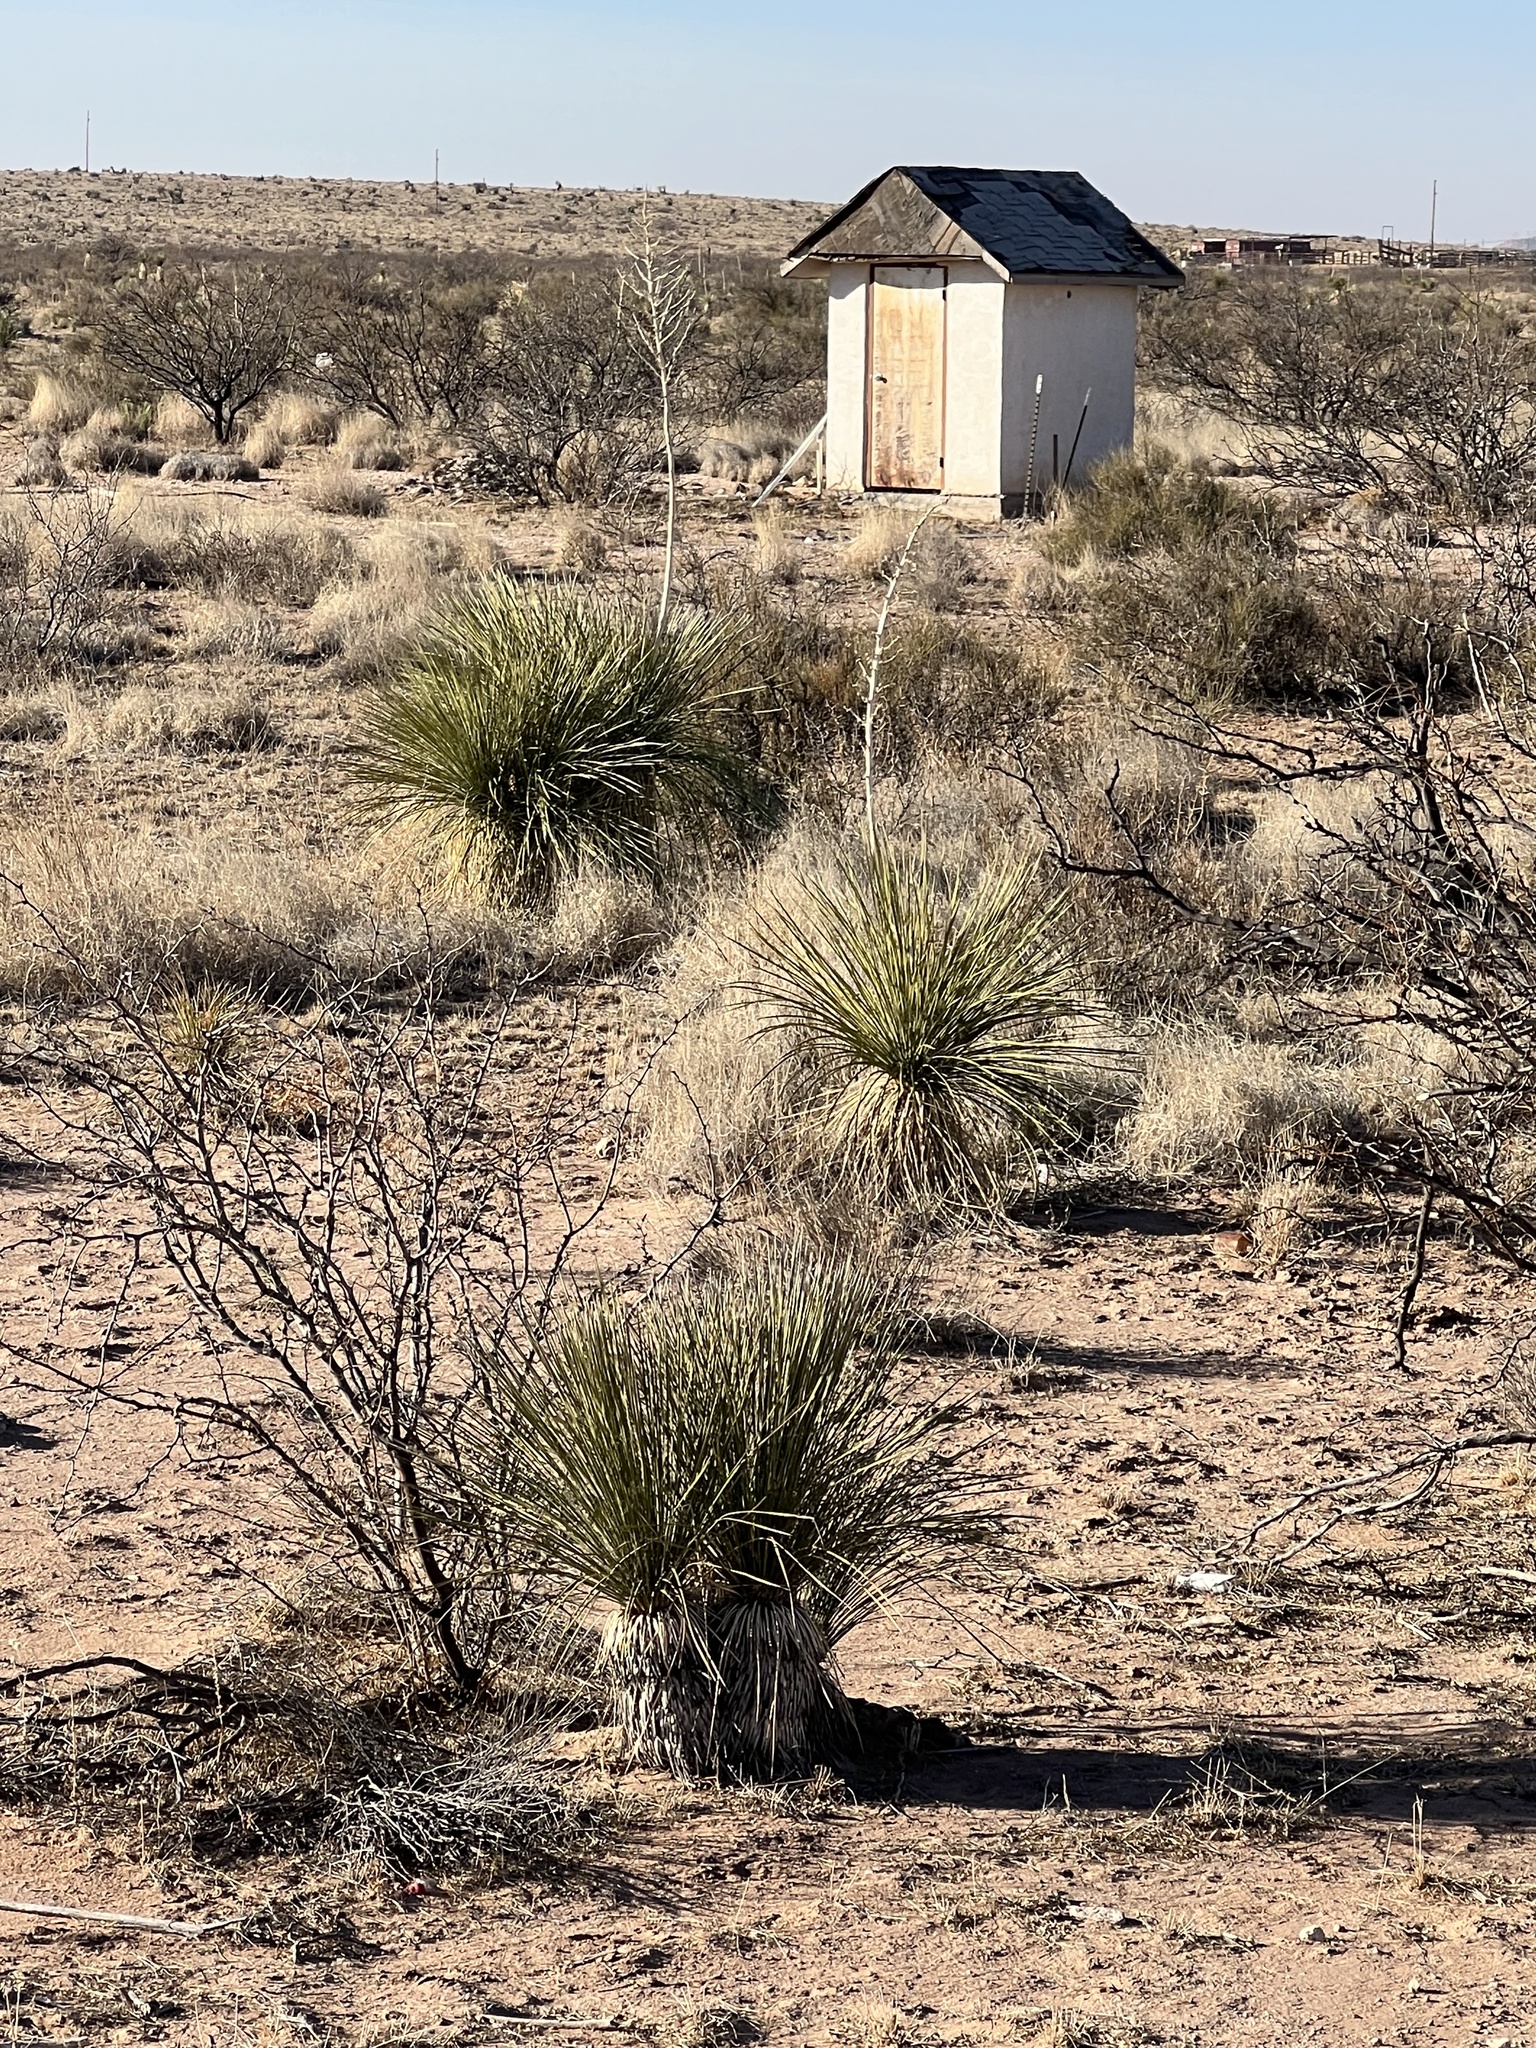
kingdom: Plantae
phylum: Tracheophyta
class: Liliopsida
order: Asparagales
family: Asparagaceae
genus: Yucca
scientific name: Yucca elata
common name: Palmella
